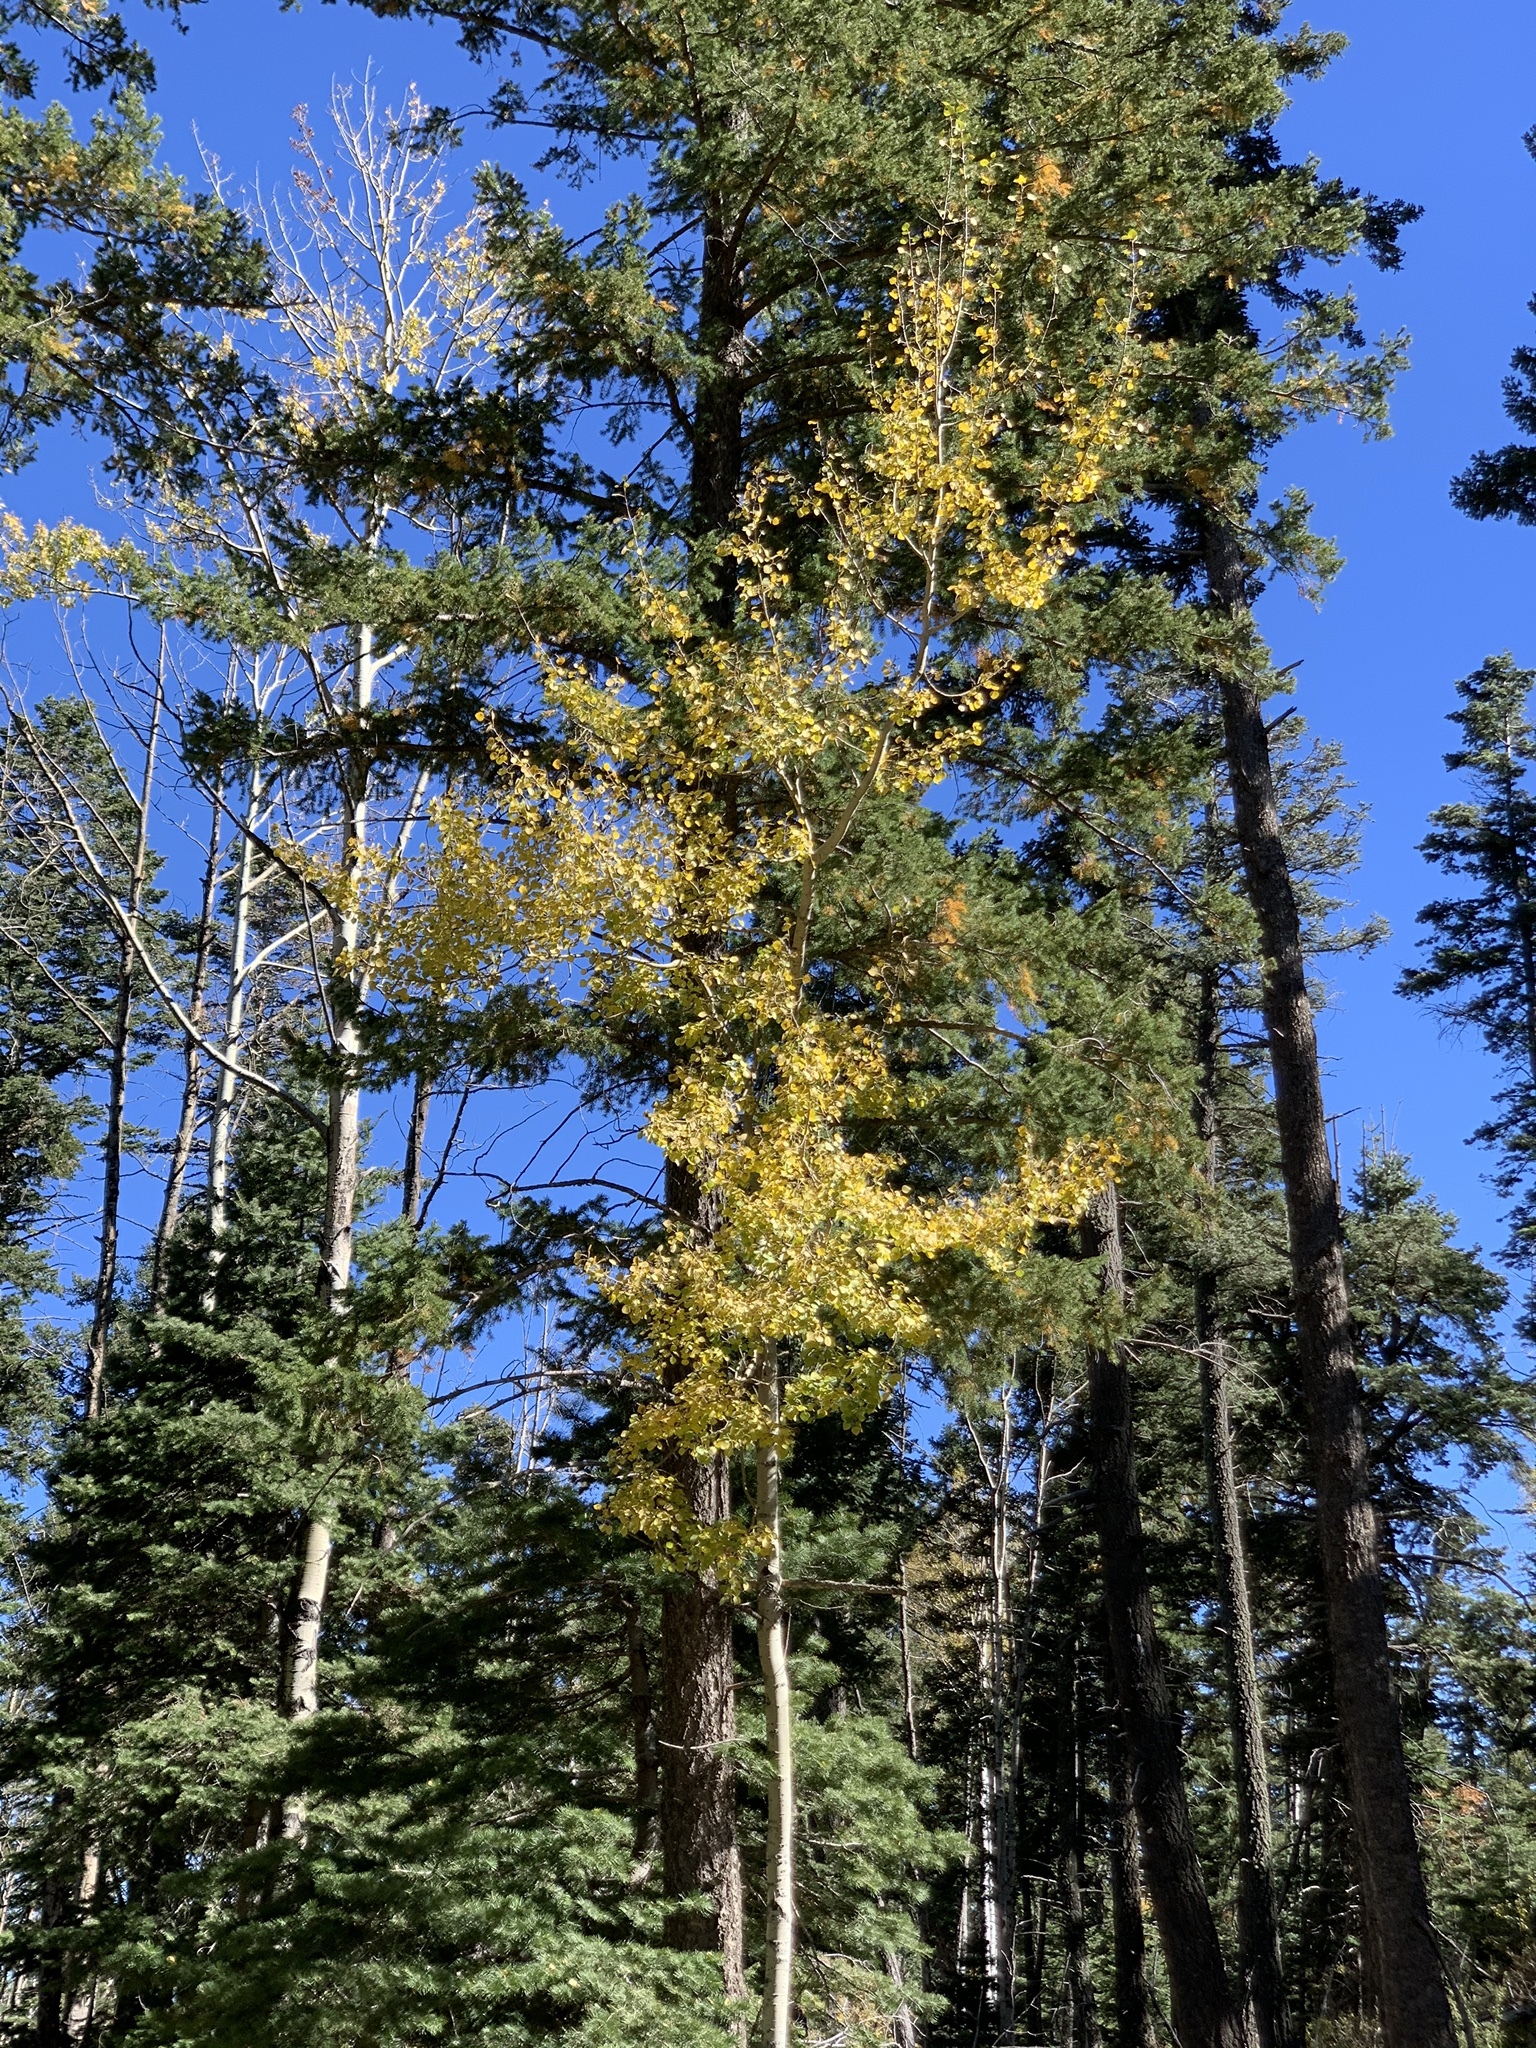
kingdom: Plantae
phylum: Tracheophyta
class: Magnoliopsida
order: Malpighiales
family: Salicaceae
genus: Populus
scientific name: Populus tremuloides
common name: Quaking aspen
